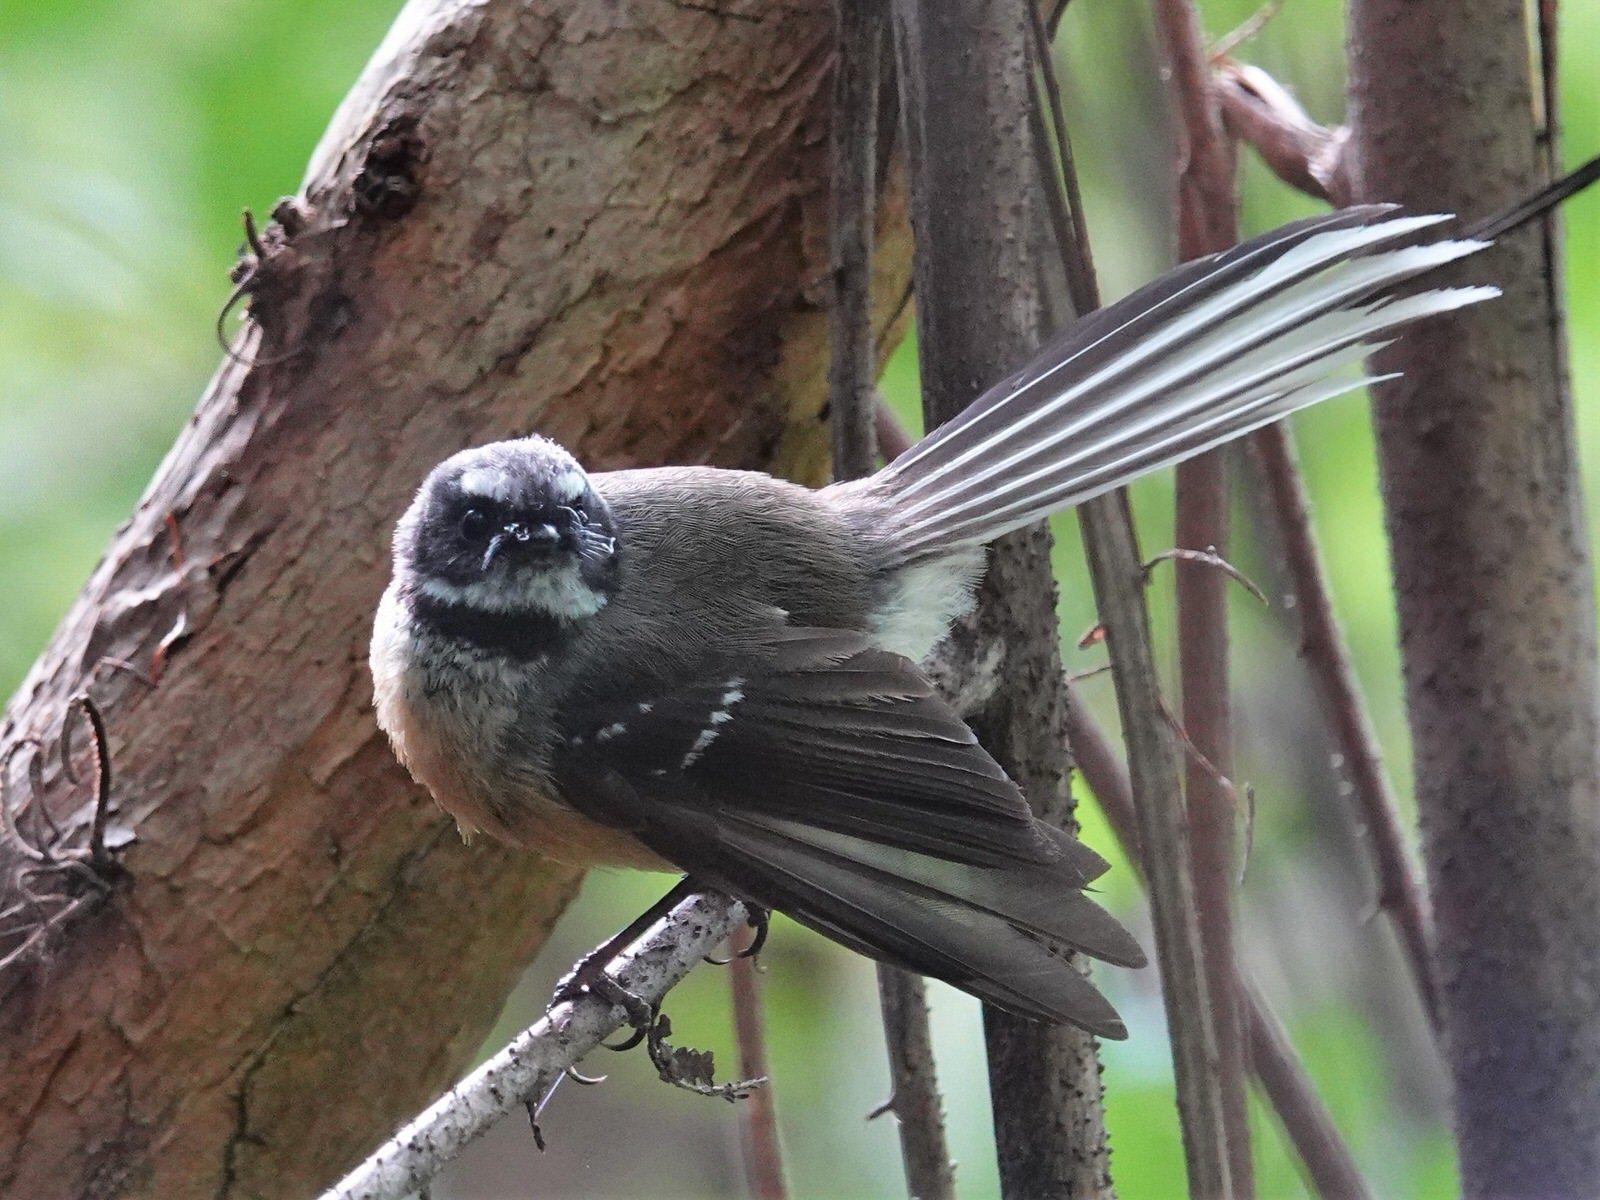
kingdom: Animalia
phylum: Chordata
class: Aves
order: Passeriformes
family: Rhipiduridae
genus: Rhipidura
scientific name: Rhipidura fuliginosa
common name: New zealand fantail
